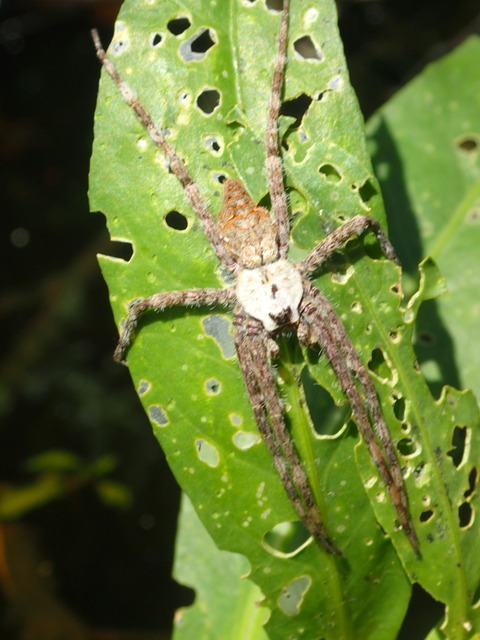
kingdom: Animalia
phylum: Arthropoda
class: Arachnida
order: Araneae
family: Pisauridae
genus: Dolomedes
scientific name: Dolomedes albineus
